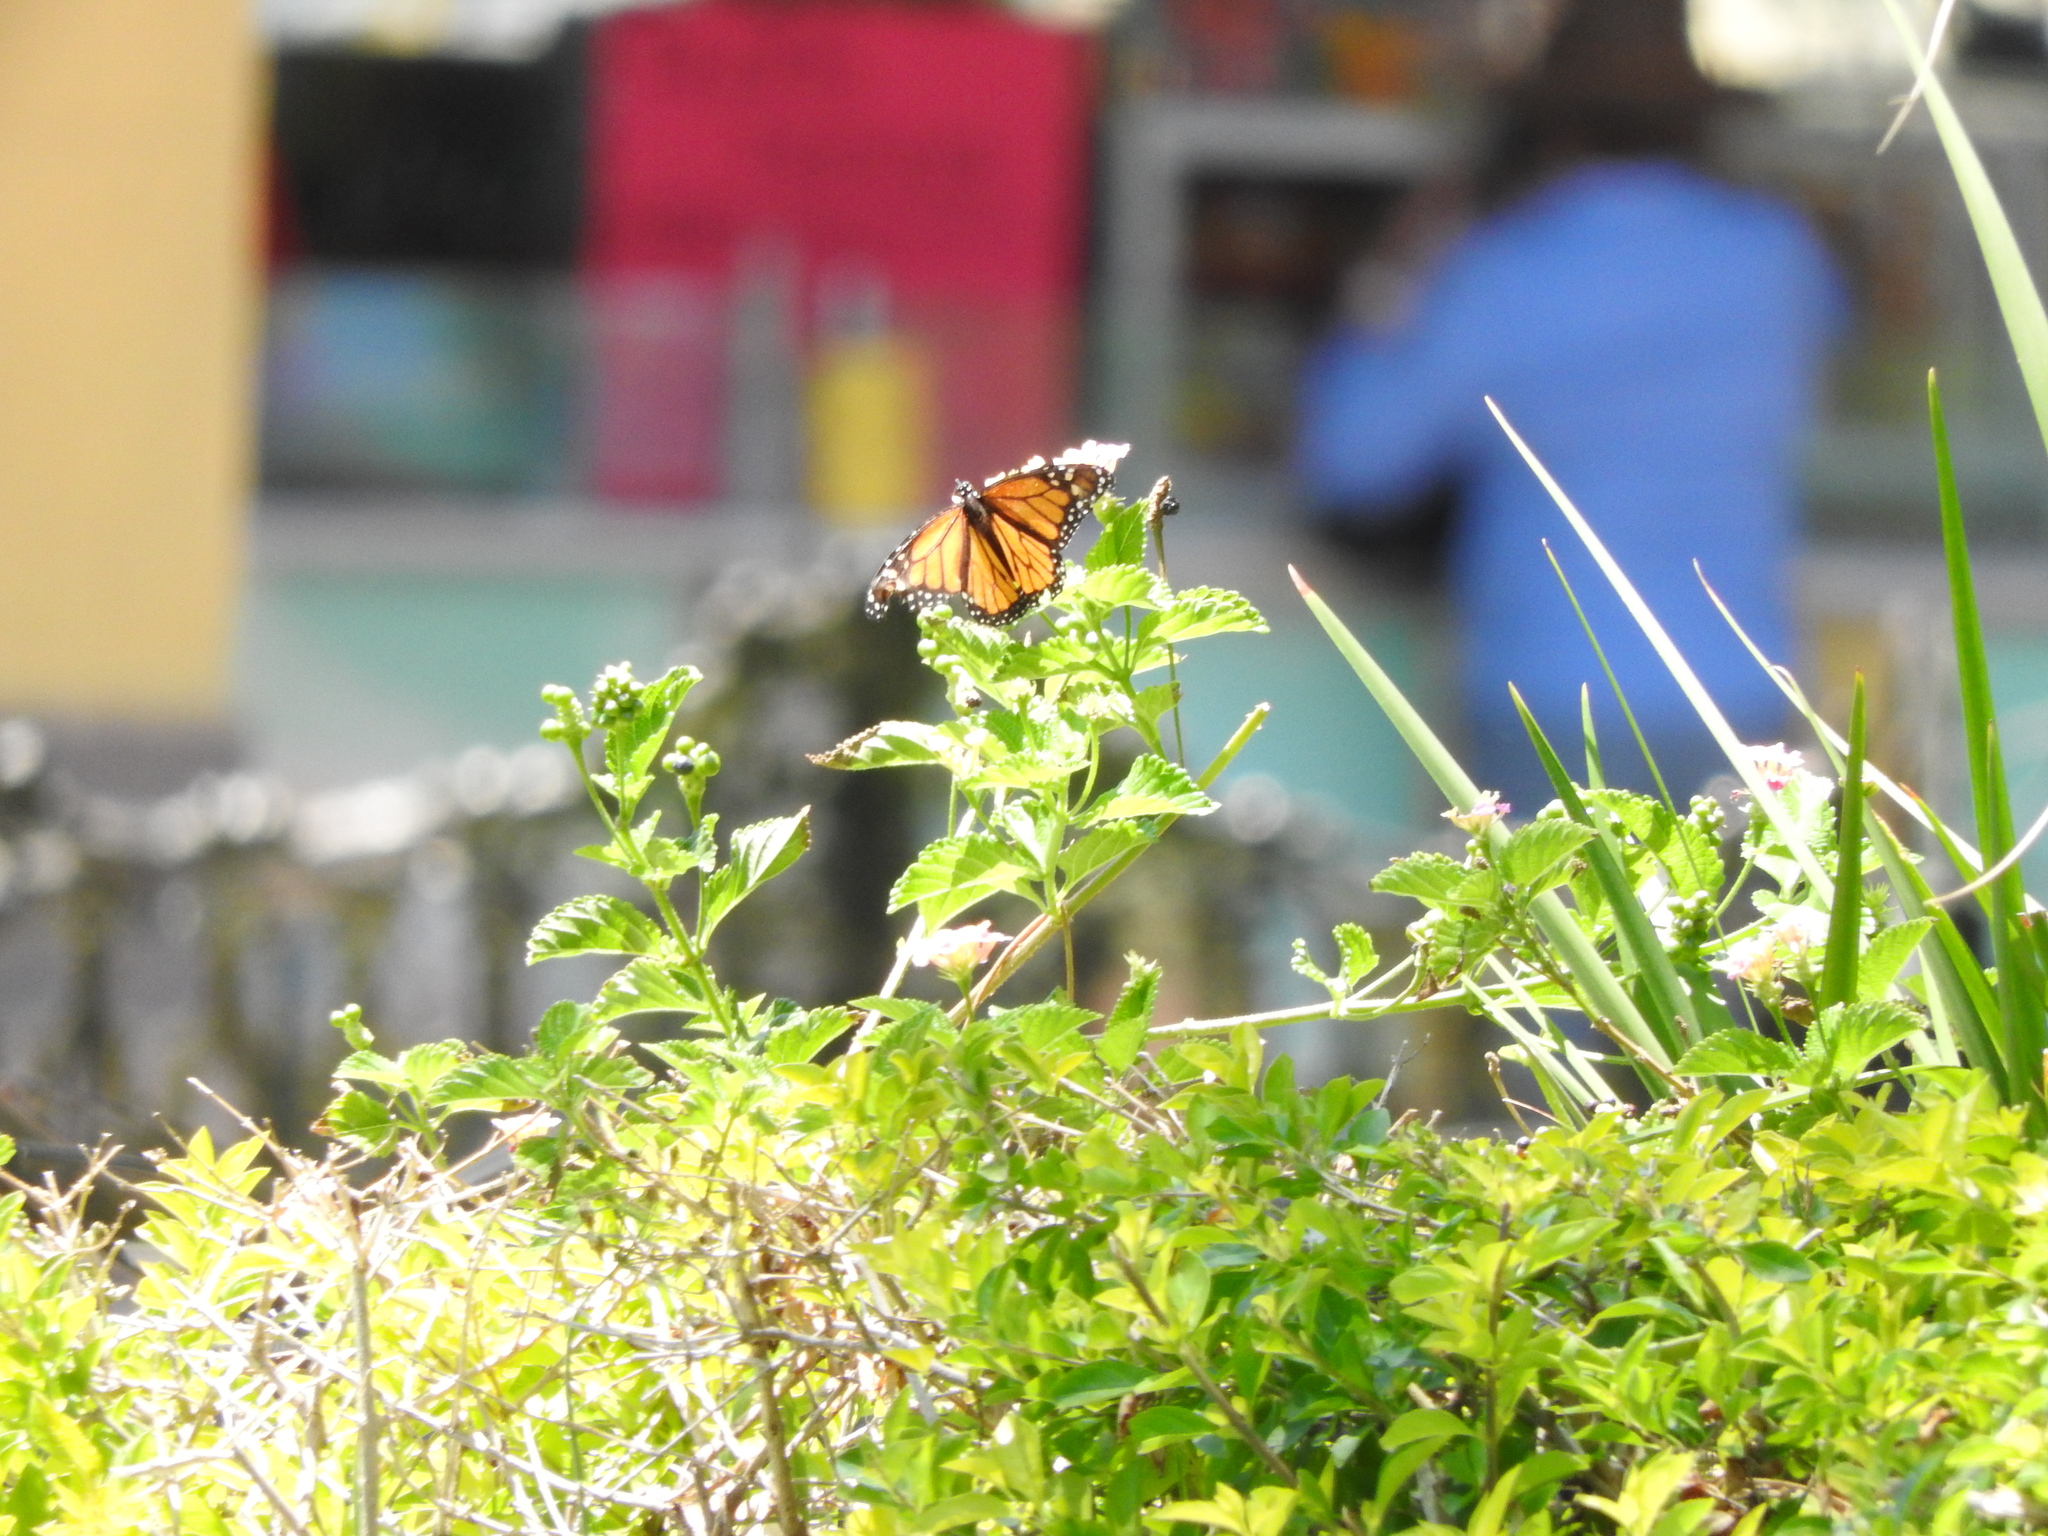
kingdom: Animalia
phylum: Arthropoda
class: Insecta
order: Lepidoptera
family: Nymphalidae
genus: Danaus
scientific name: Danaus plexippus
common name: Monarch
